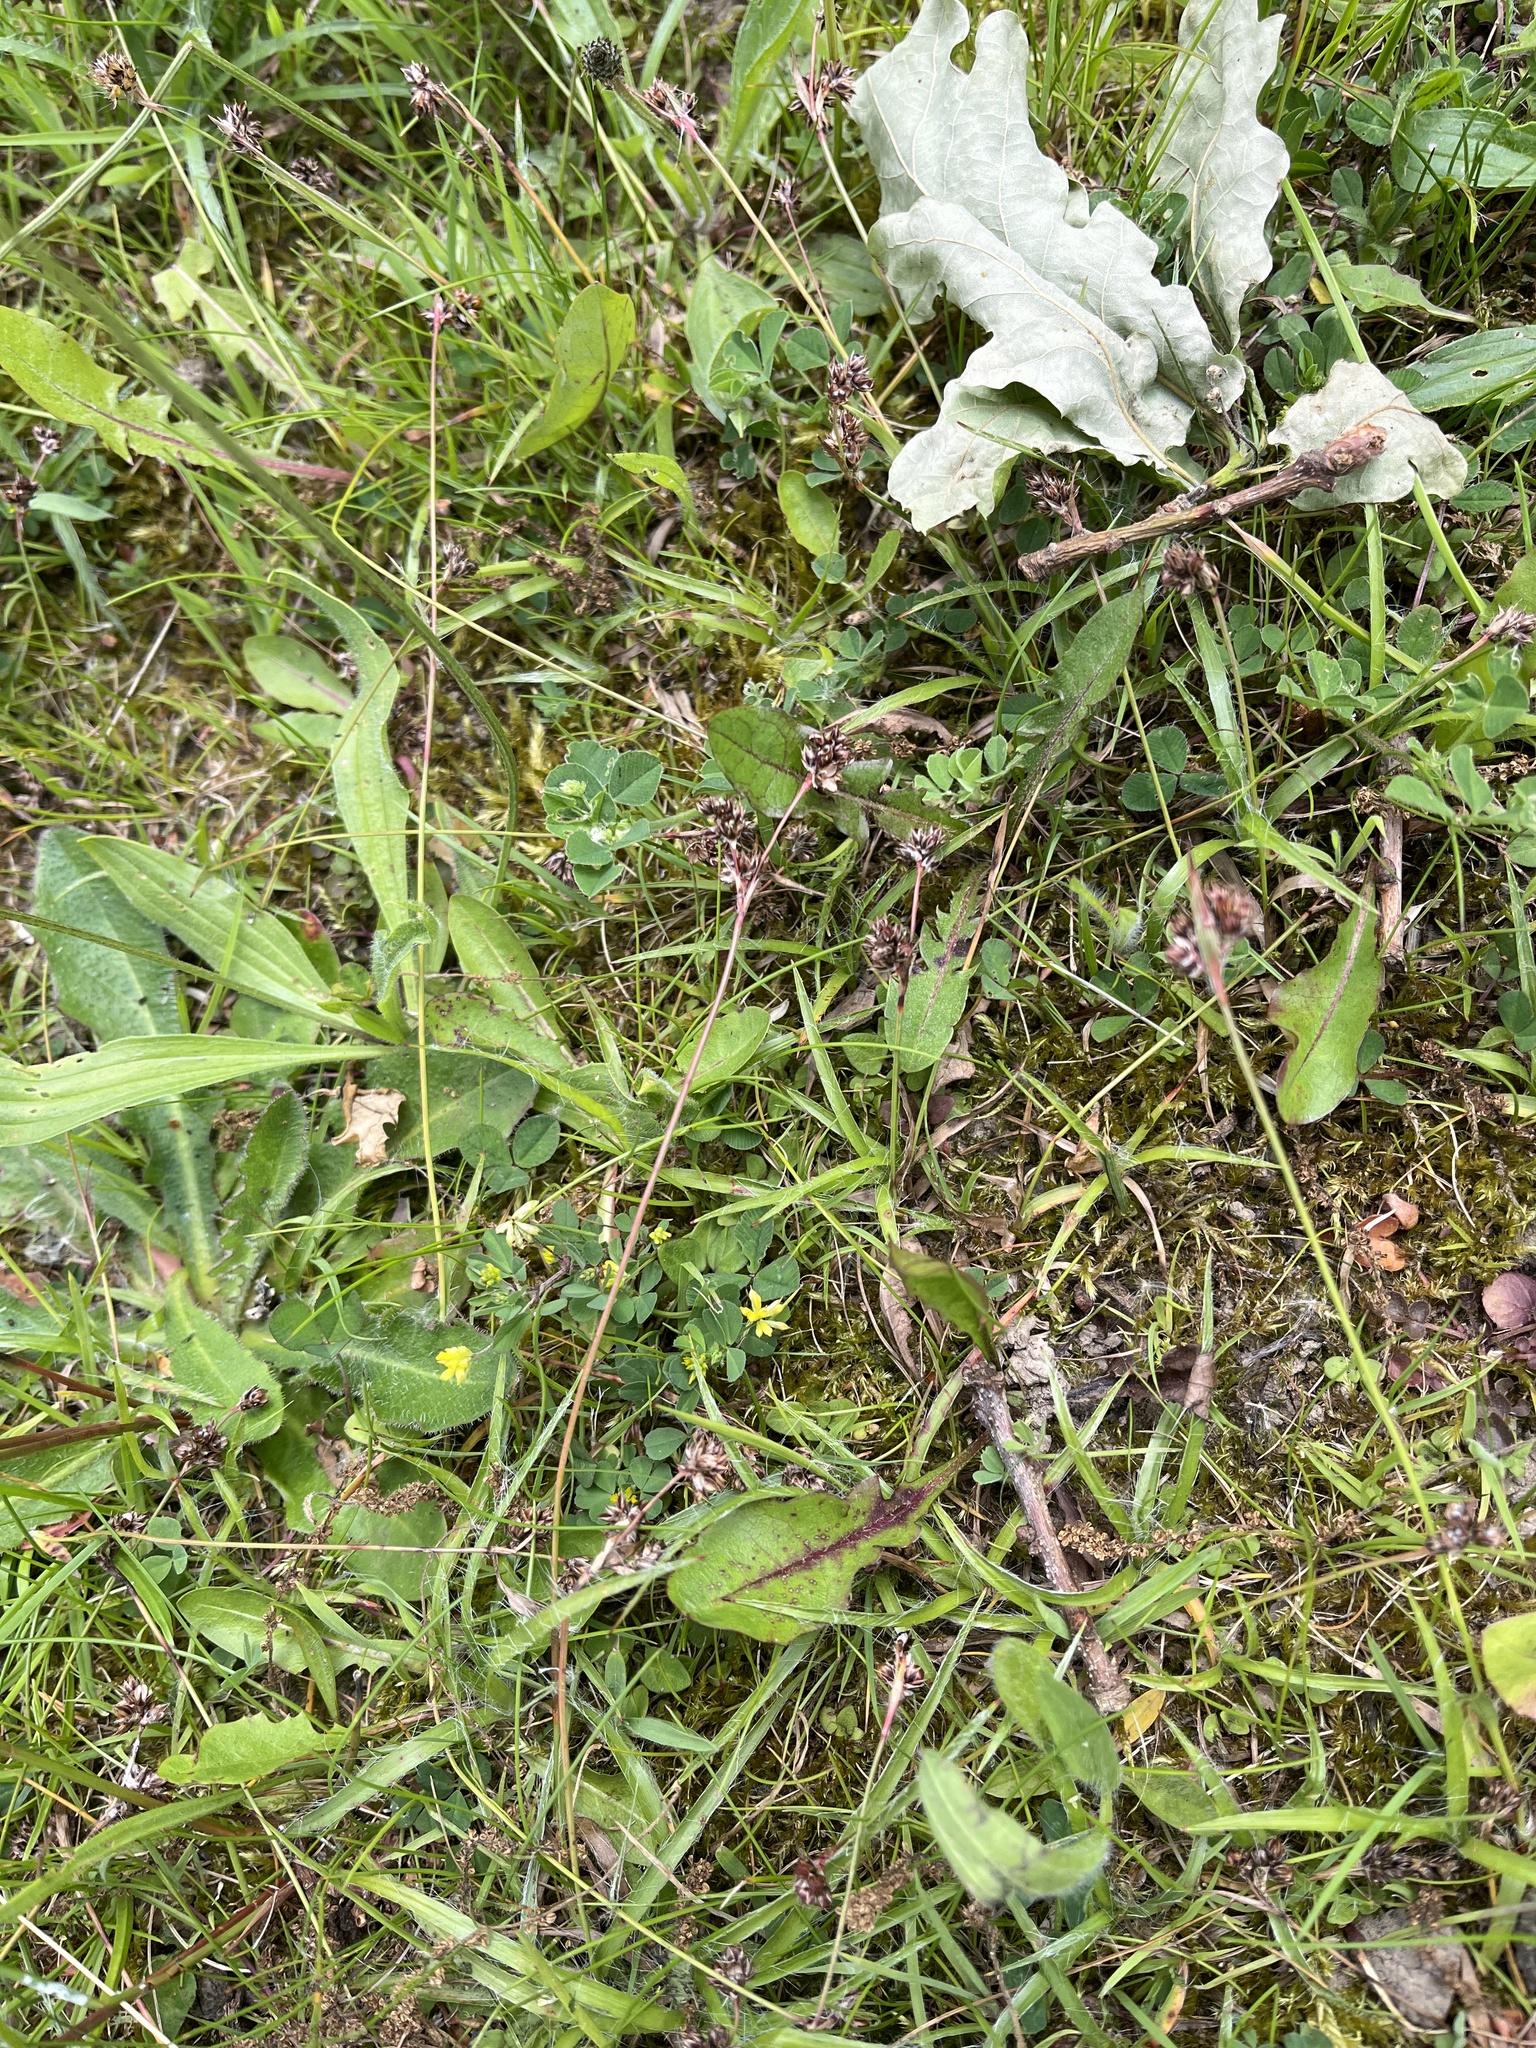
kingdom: Plantae
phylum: Tracheophyta
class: Liliopsida
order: Poales
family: Juncaceae
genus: Luzula
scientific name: Luzula campestris
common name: Field wood-rush
